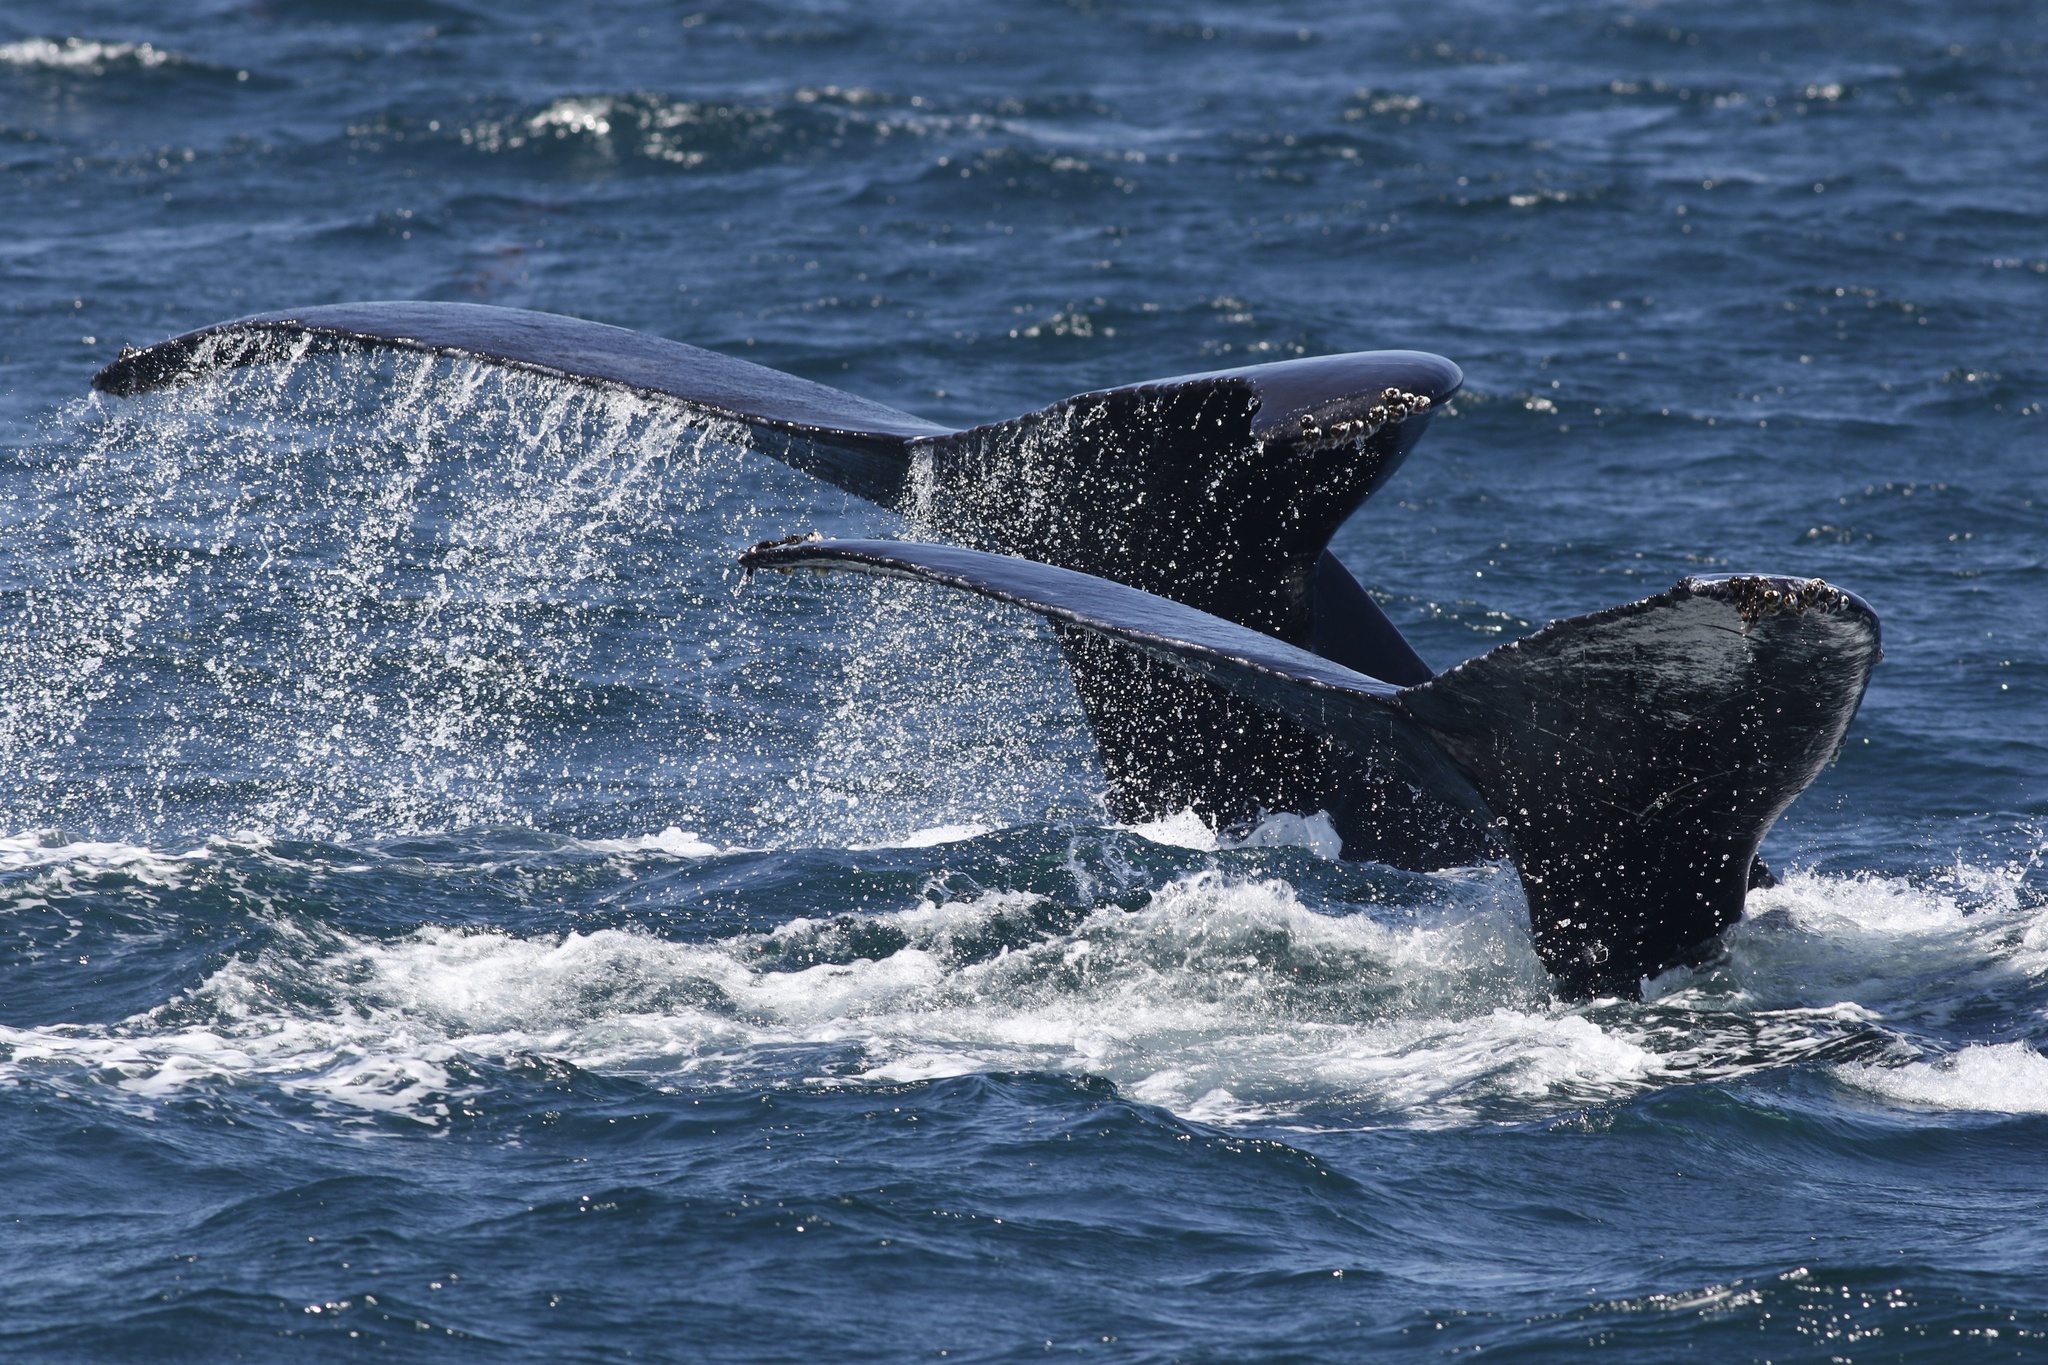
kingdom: Animalia
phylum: Chordata
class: Mammalia
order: Cetacea
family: Balaenopteridae
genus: Megaptera
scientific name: Megaptera novaeangliae
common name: Humpback whale
